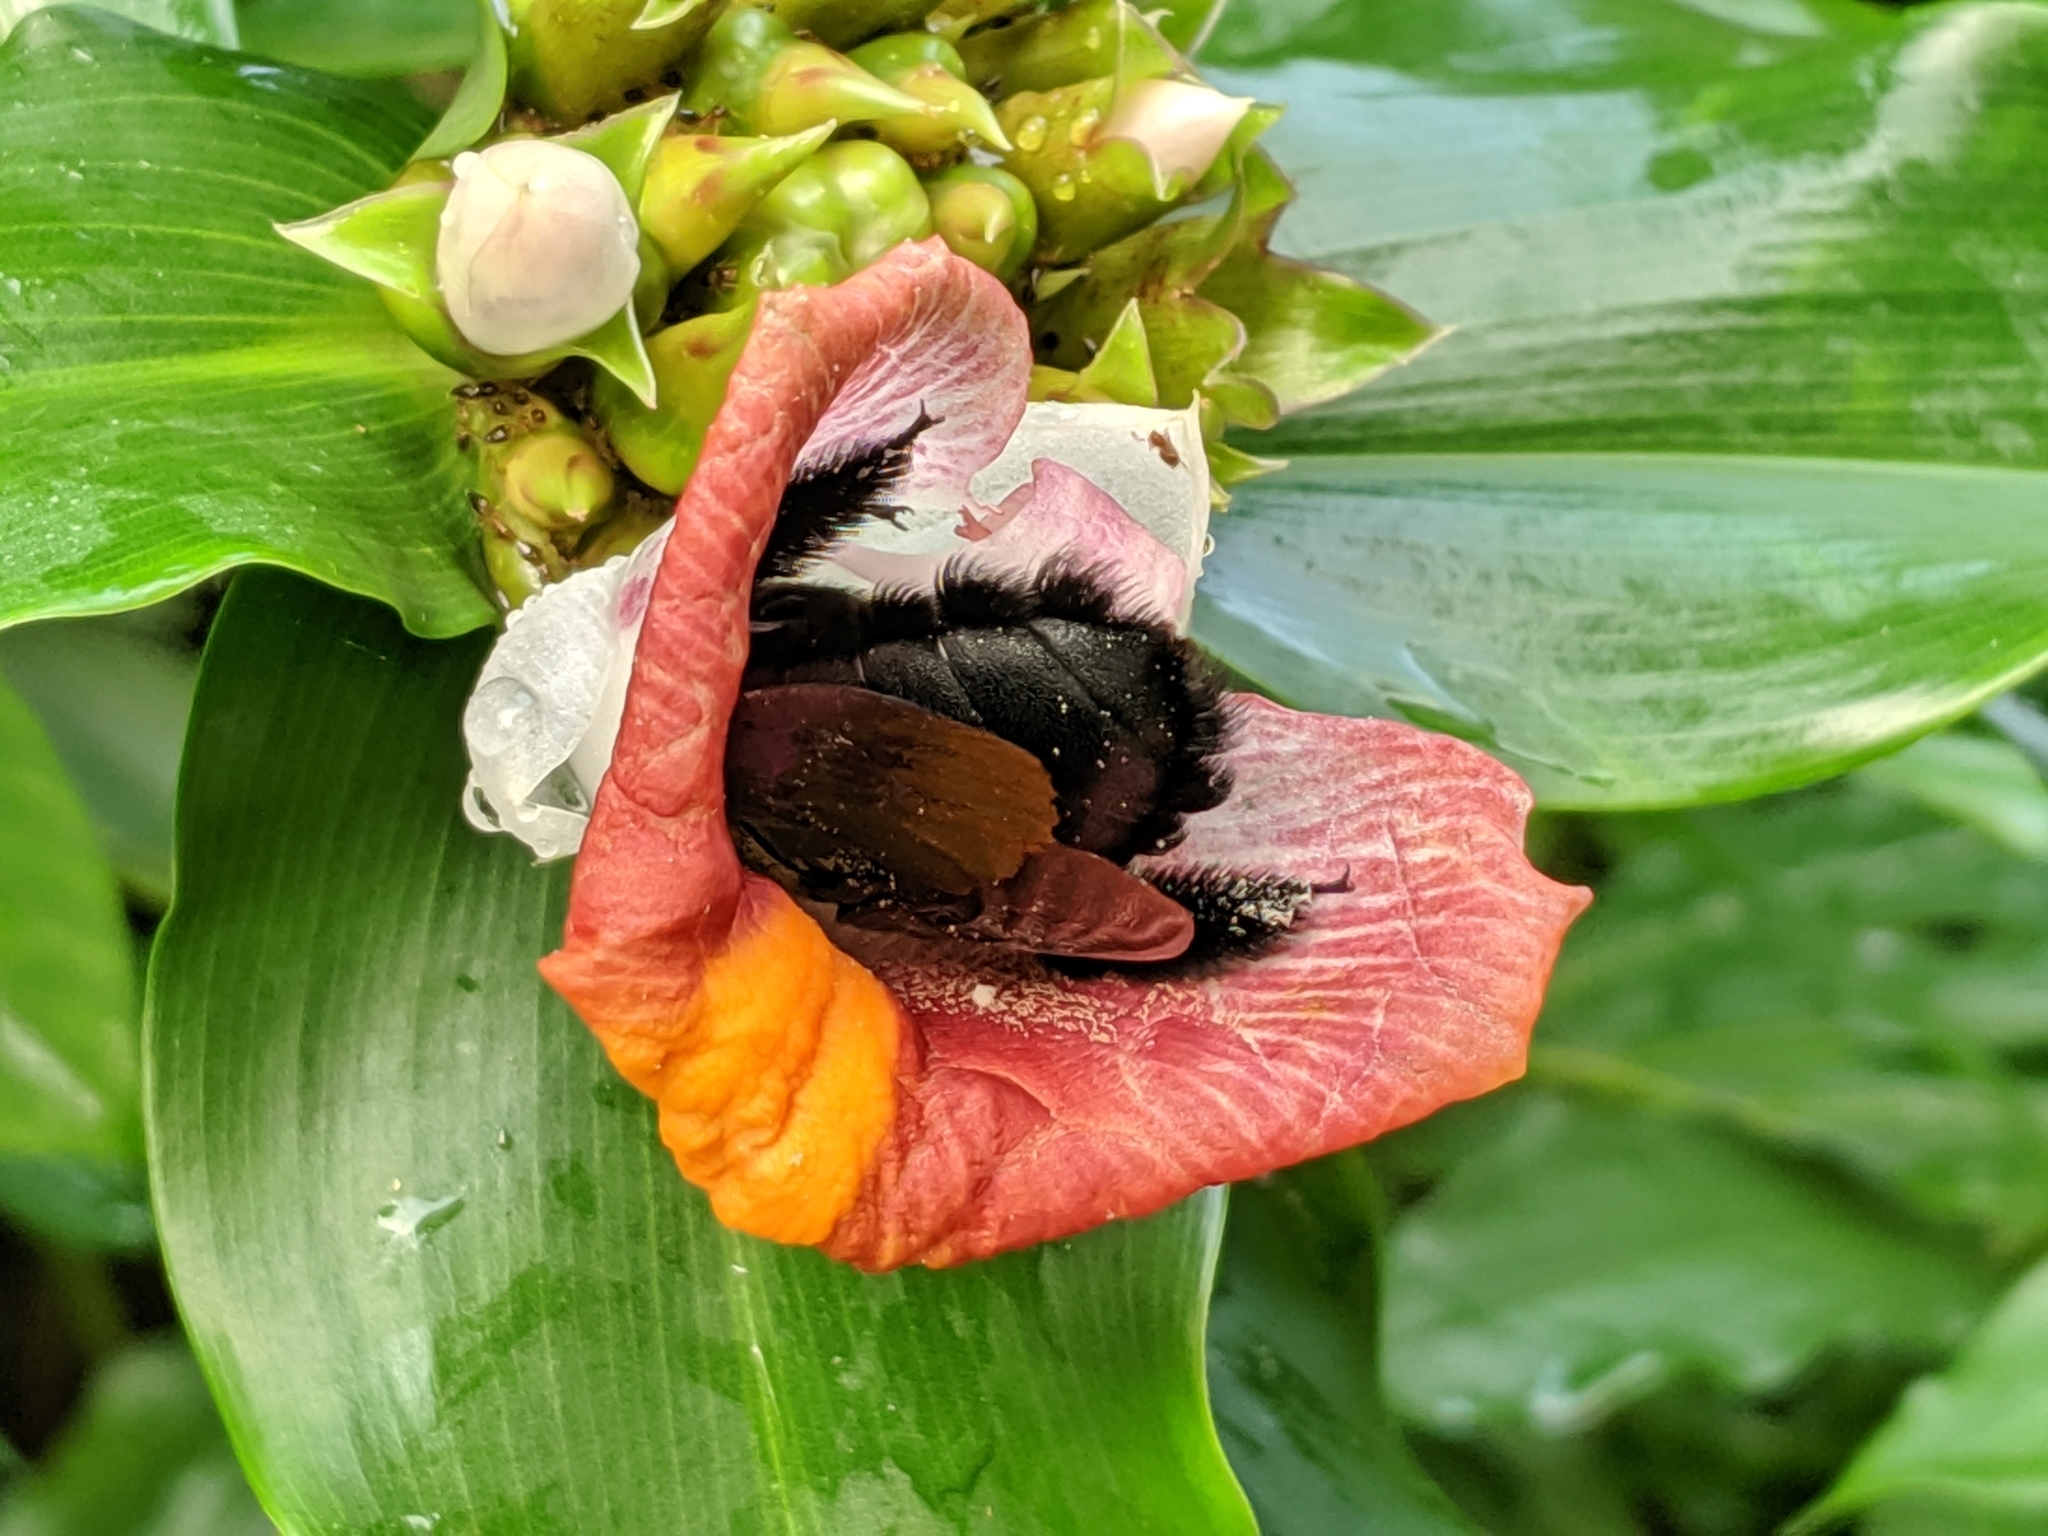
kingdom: Animalia
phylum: Arthropoda
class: Insecta
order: Hymenoptera
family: Apidae
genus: Xylocopa
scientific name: Xylocopa latipes
